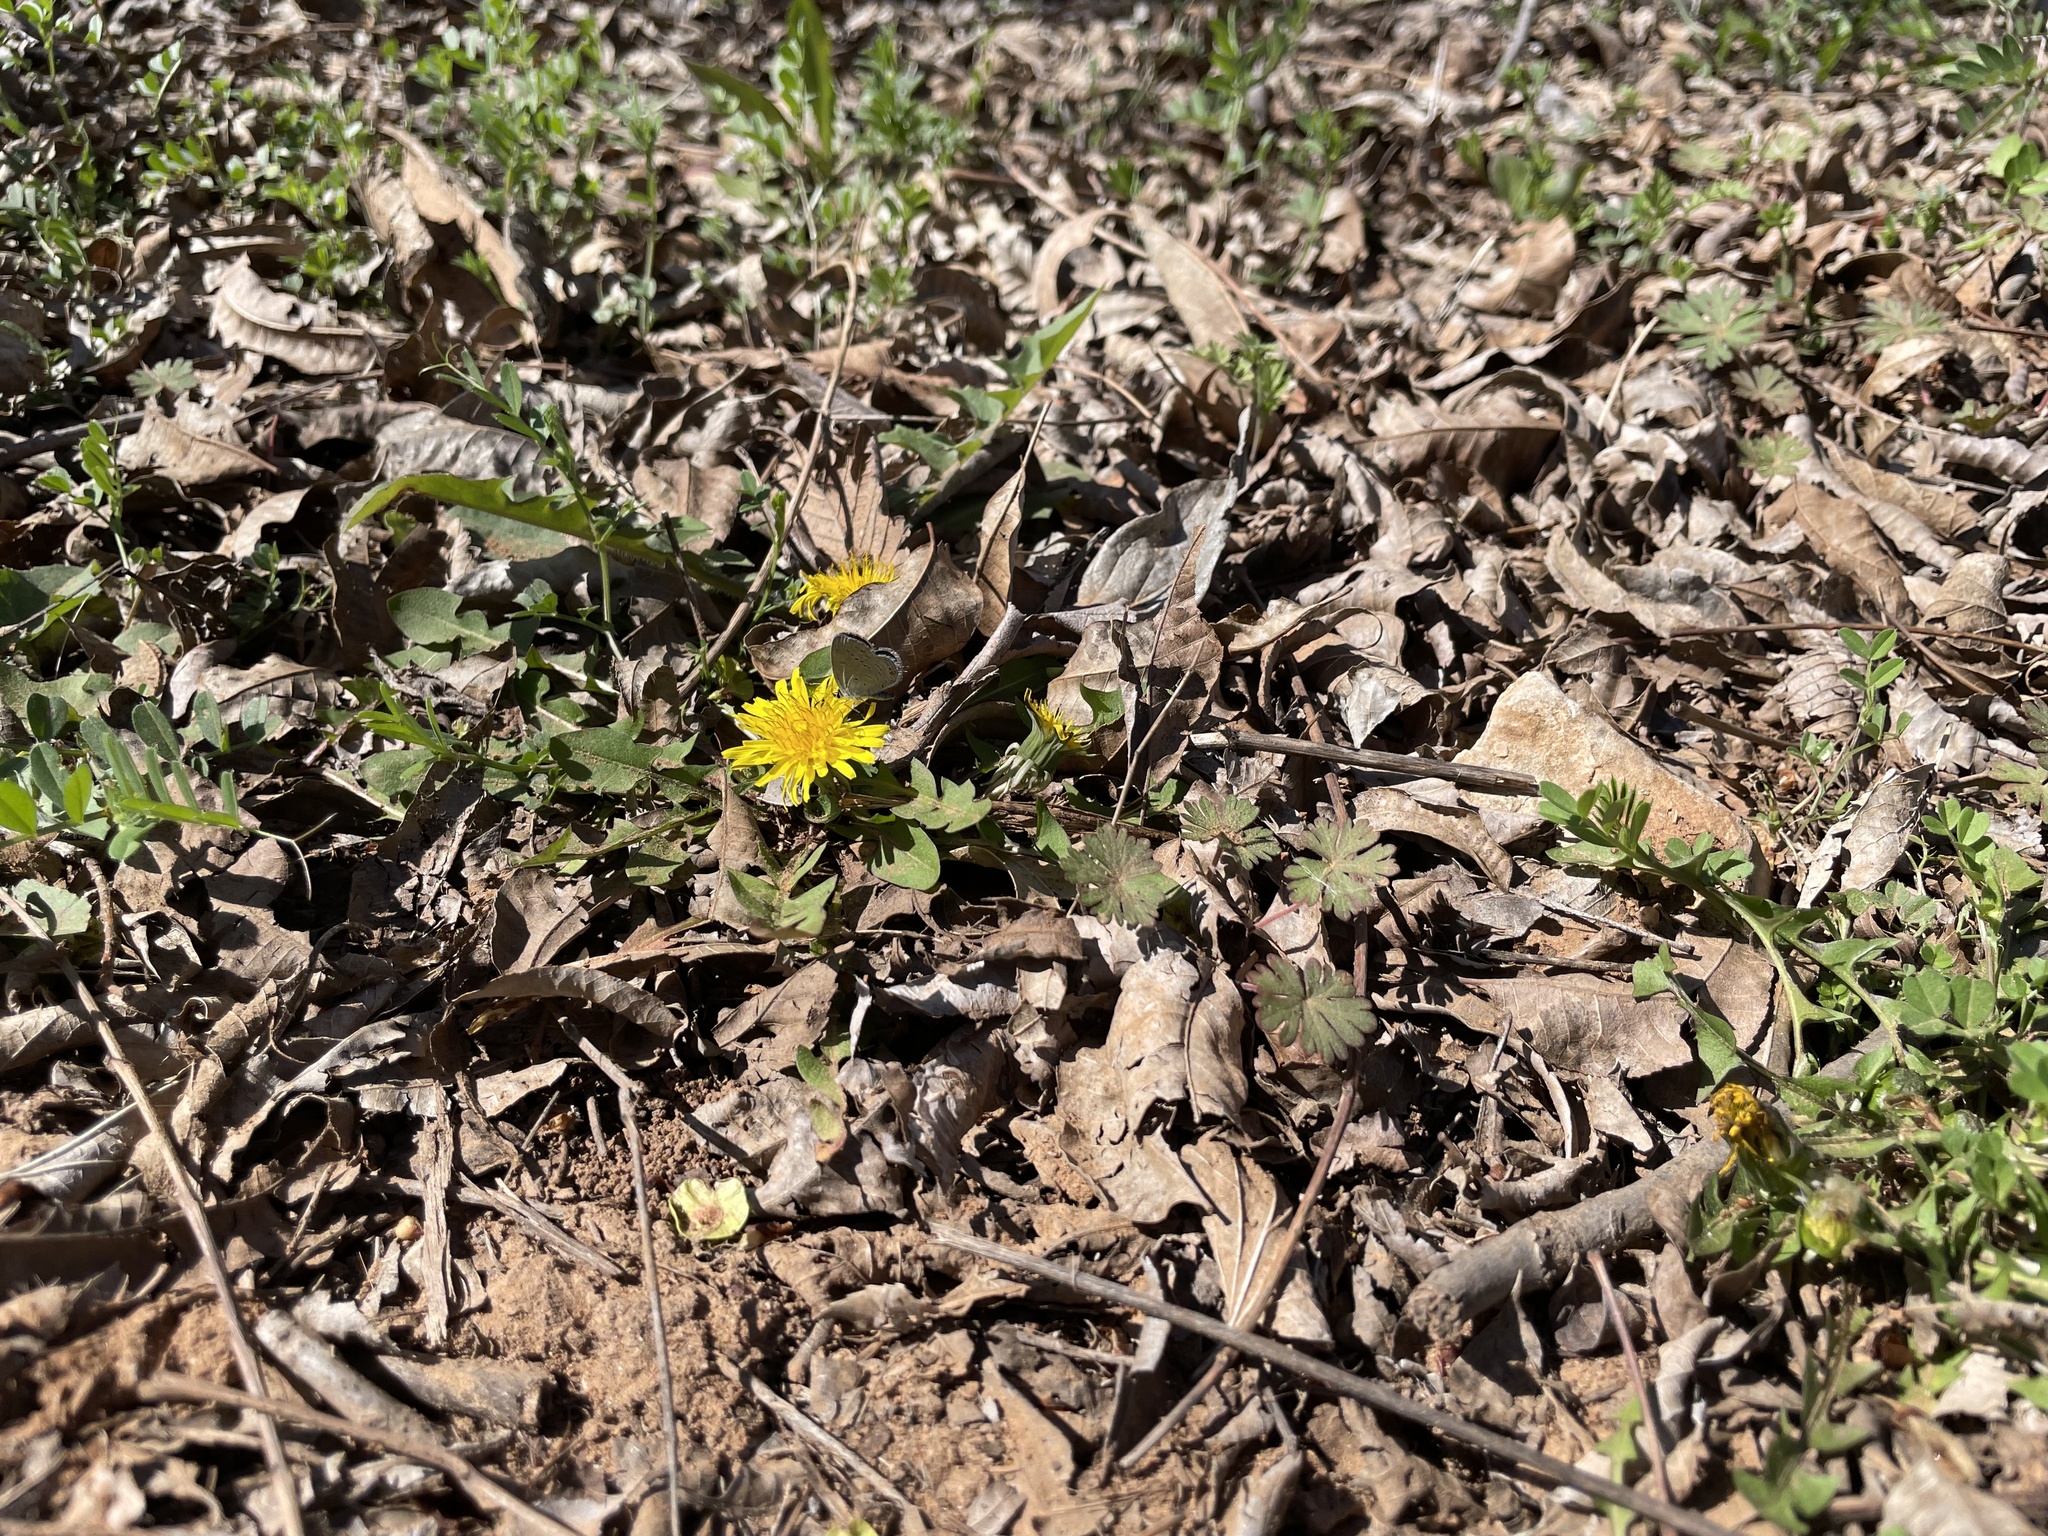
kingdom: Animalia
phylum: Arthropoda
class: Insecta
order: Lepidoptera
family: Lycaenidae
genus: Elkalyce
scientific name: Elkalyce comyntas
